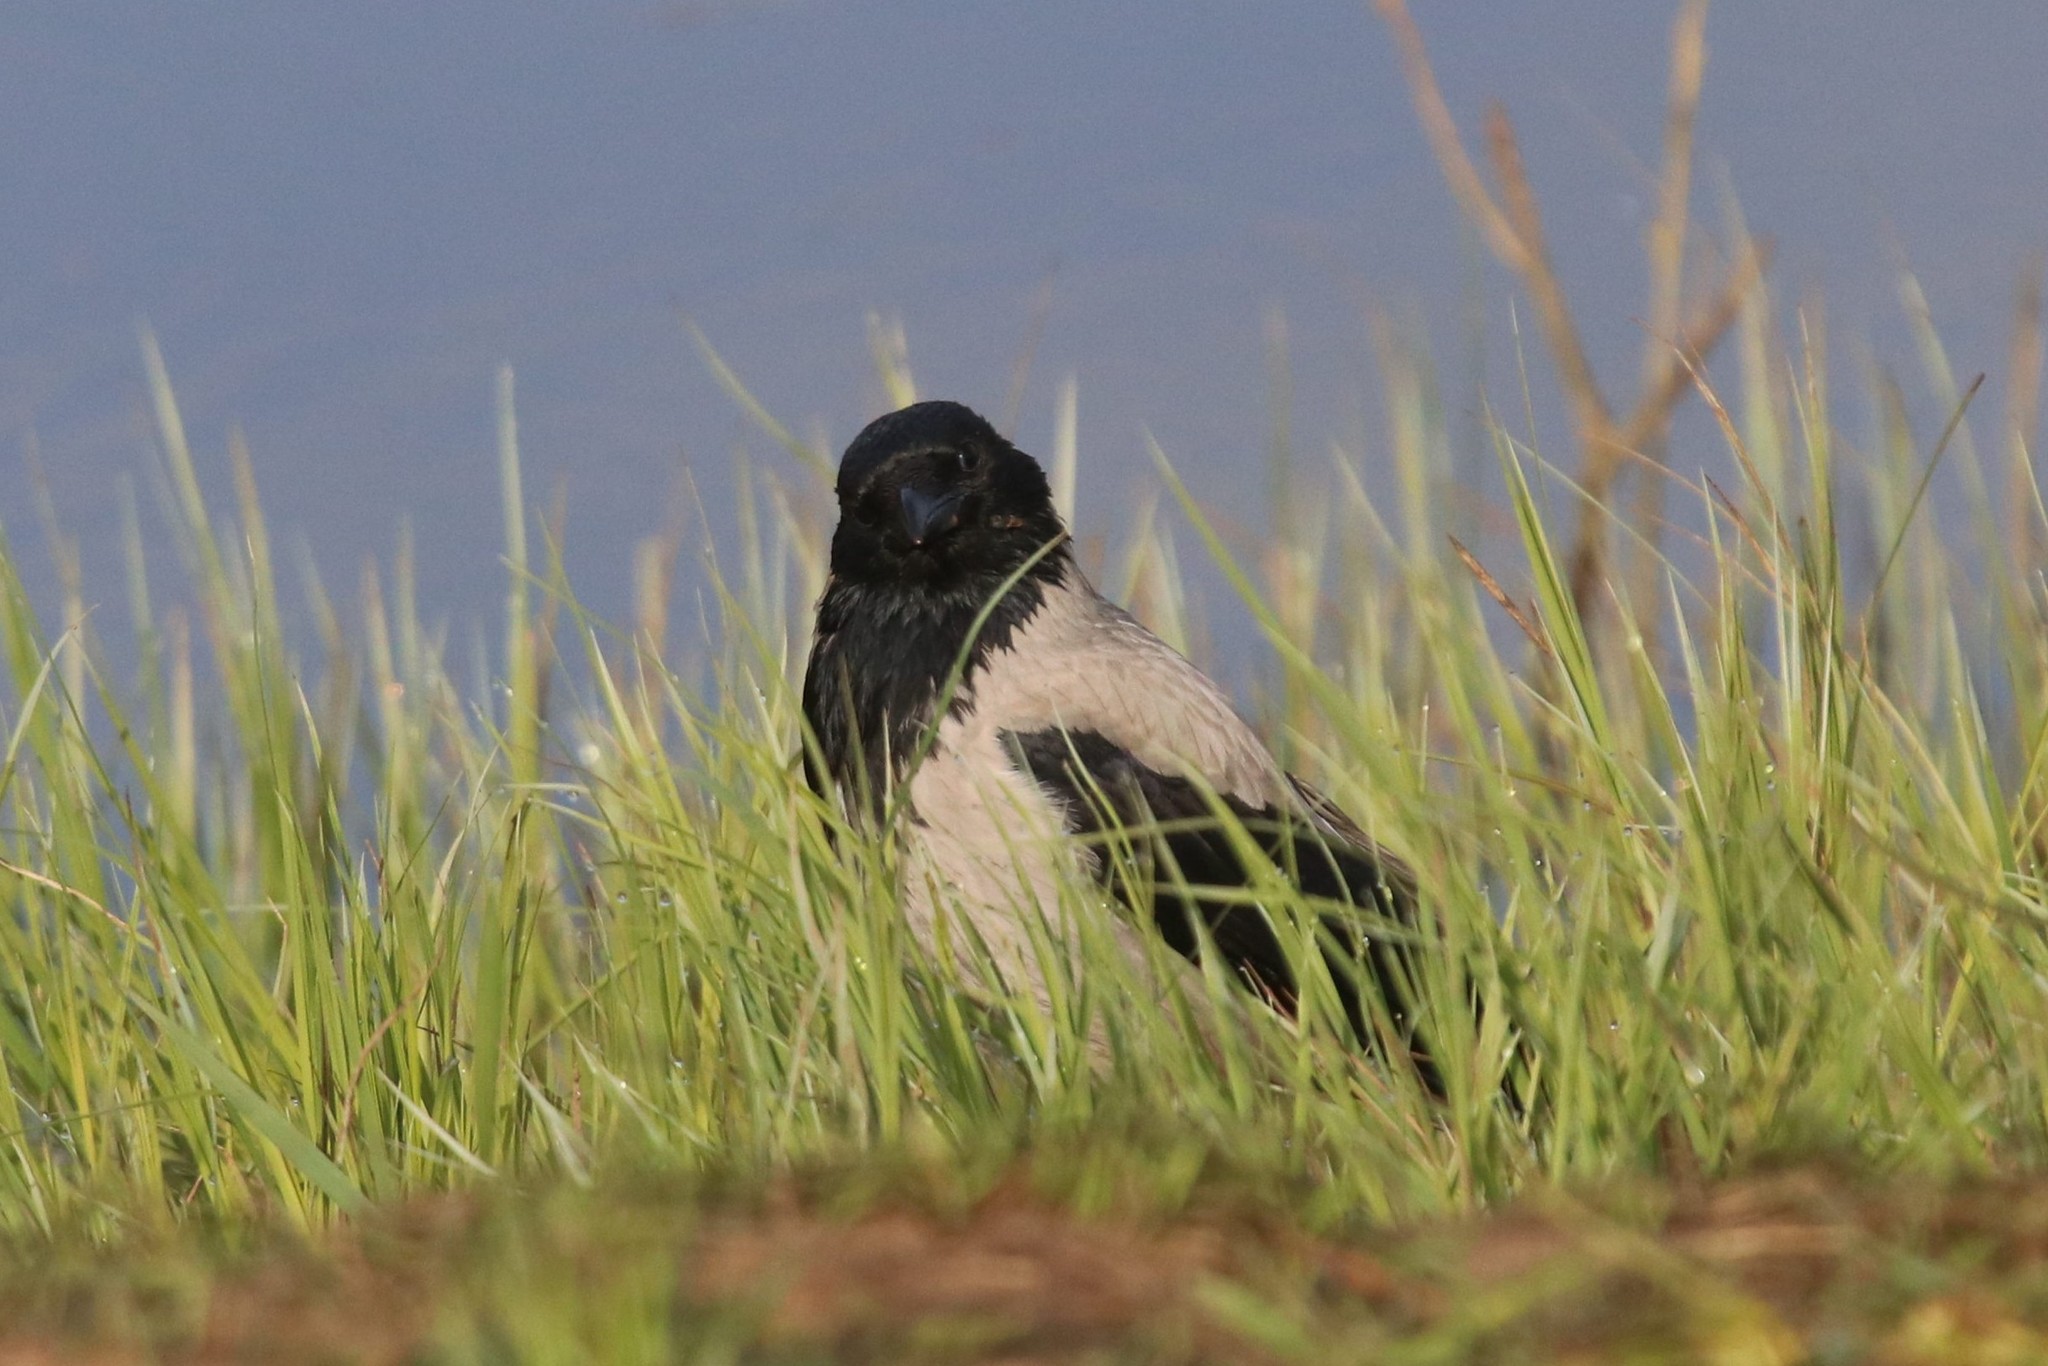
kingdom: Animalia
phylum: Chordata
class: Aves
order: Passeriformes
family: Corvidae
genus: Corvus
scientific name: Corvus cornix
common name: Hooded crow
